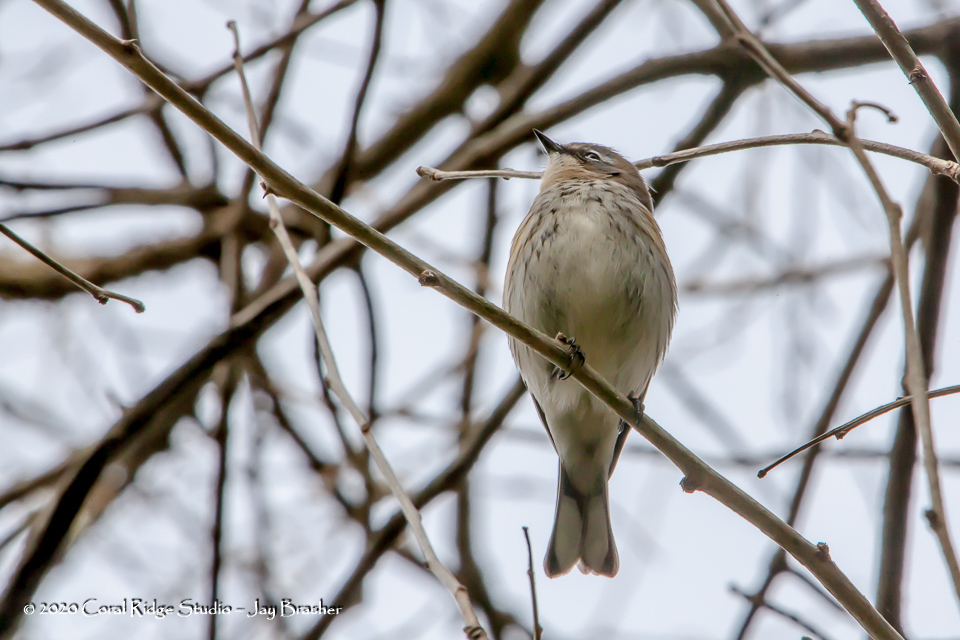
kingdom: Animalia
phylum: Chordata
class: Aves
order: Passeriformes
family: Parulidae
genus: Setophaga
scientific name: Setophaga coronata
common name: Myrtle warbler
